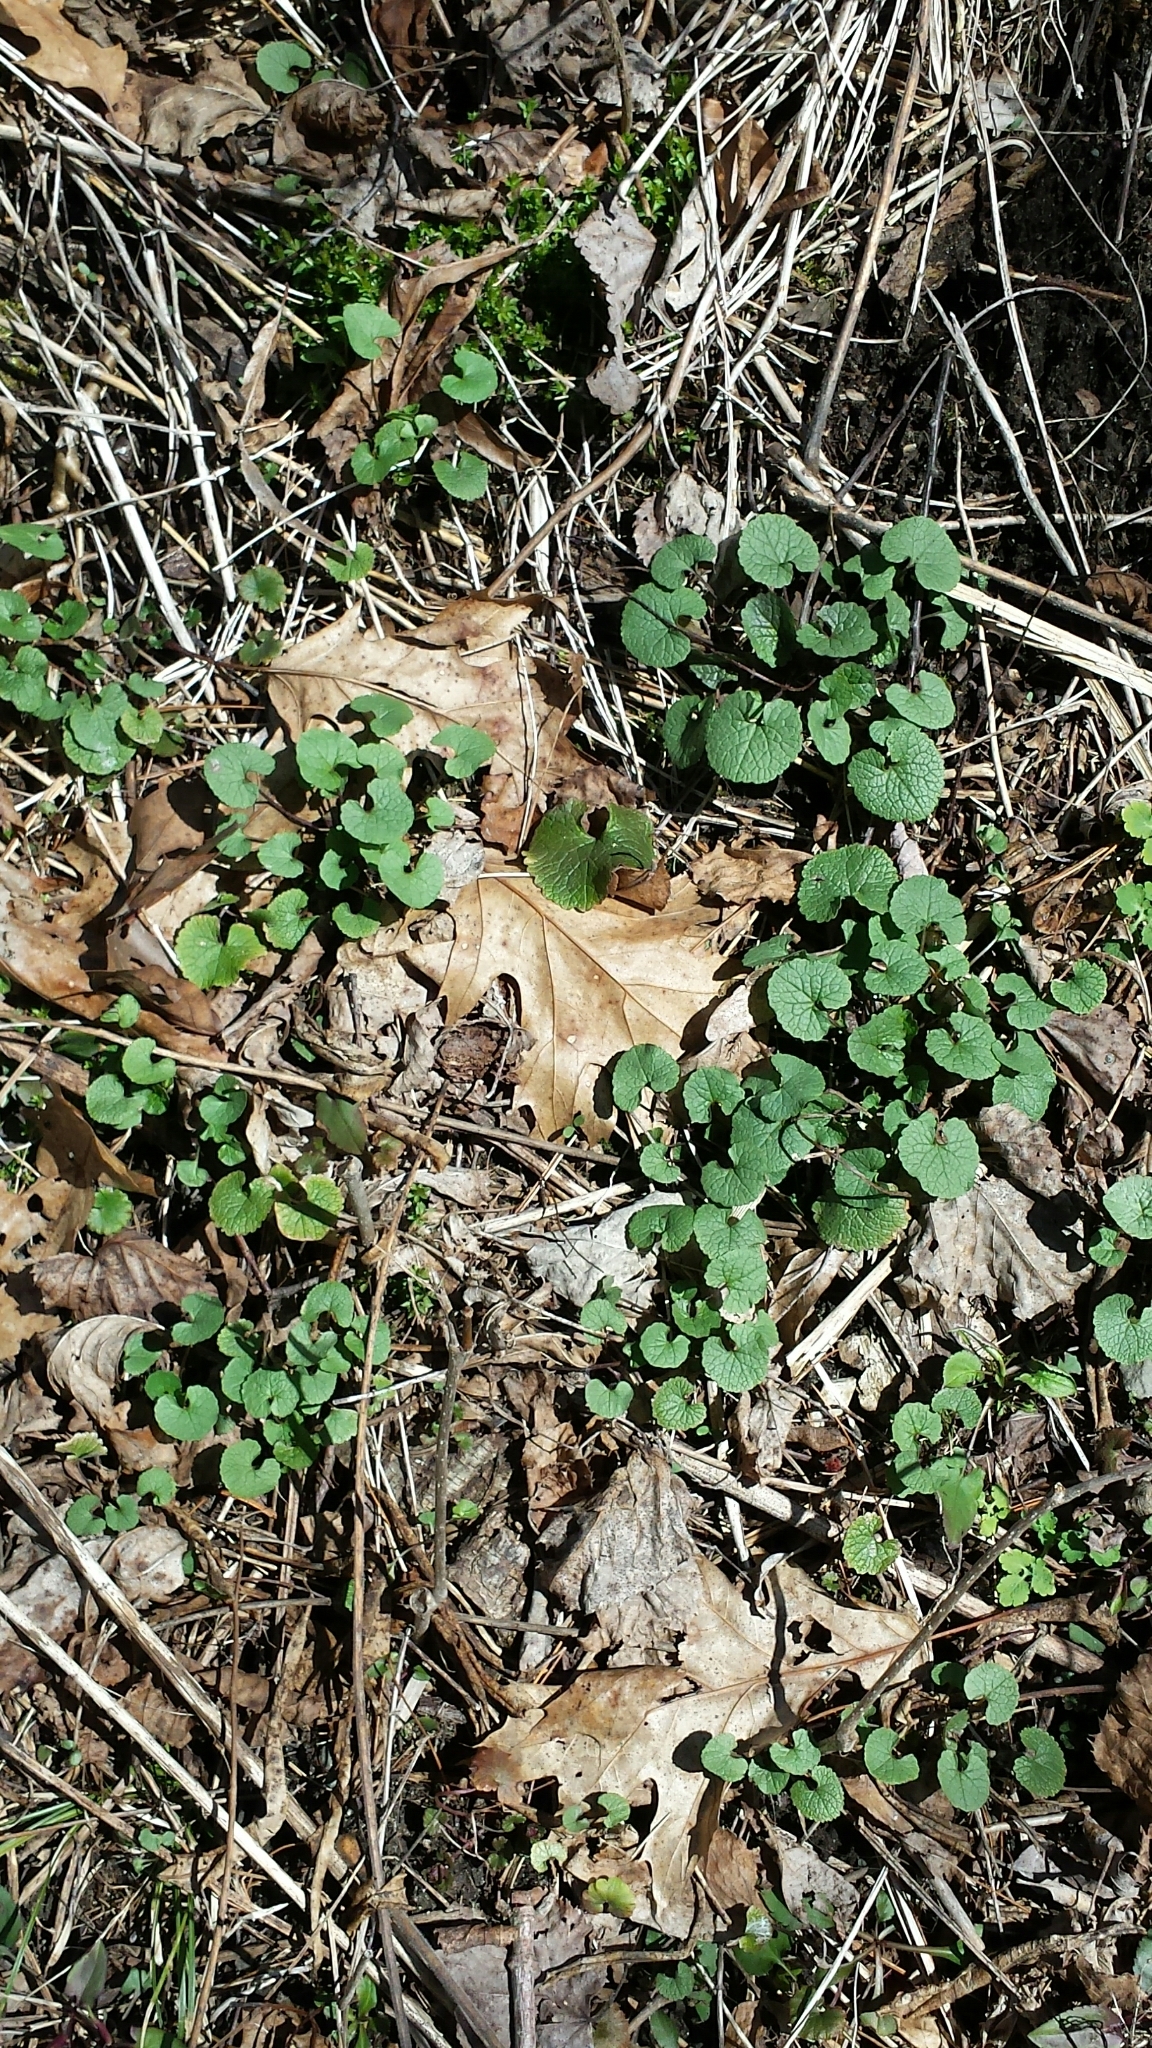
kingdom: Plantae
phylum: Tracheophyta
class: Magnoliopsida
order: Brassicales
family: Brassicaceae
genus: Alliaria
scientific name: Alliaria petiolata
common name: Garlic mustard
